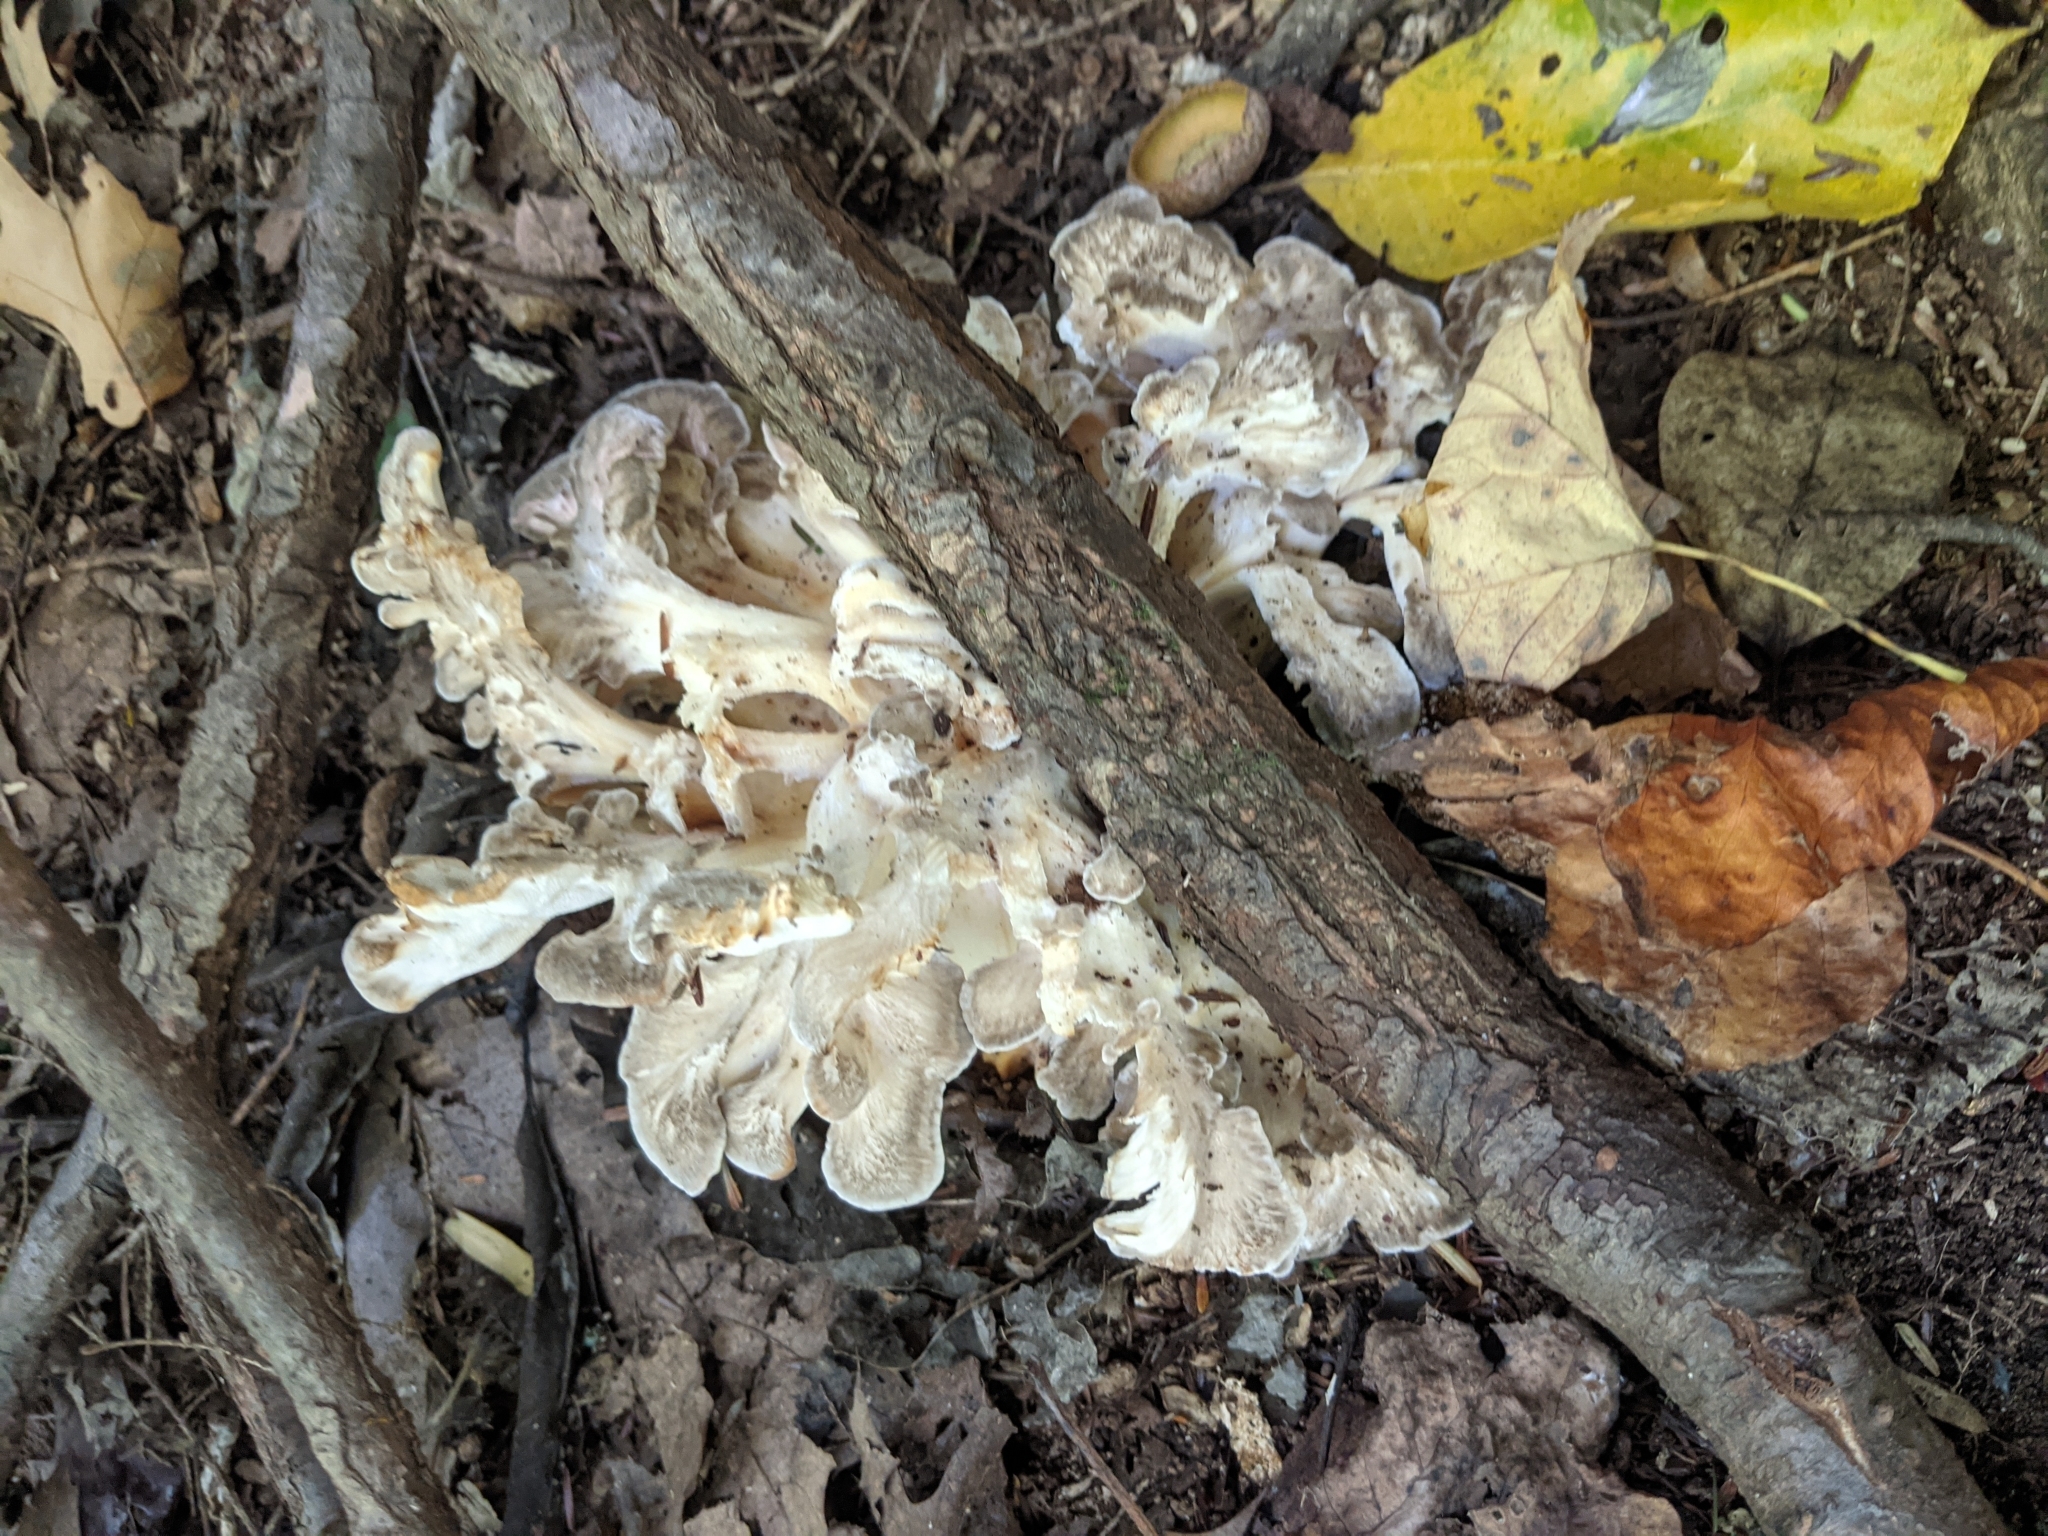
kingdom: Fungi
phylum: Basidiomycota
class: Agaricomycetes
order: Polyporales
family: Grifolaceae
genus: Grifola
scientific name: Grifola frondosa
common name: Hen of the woods
